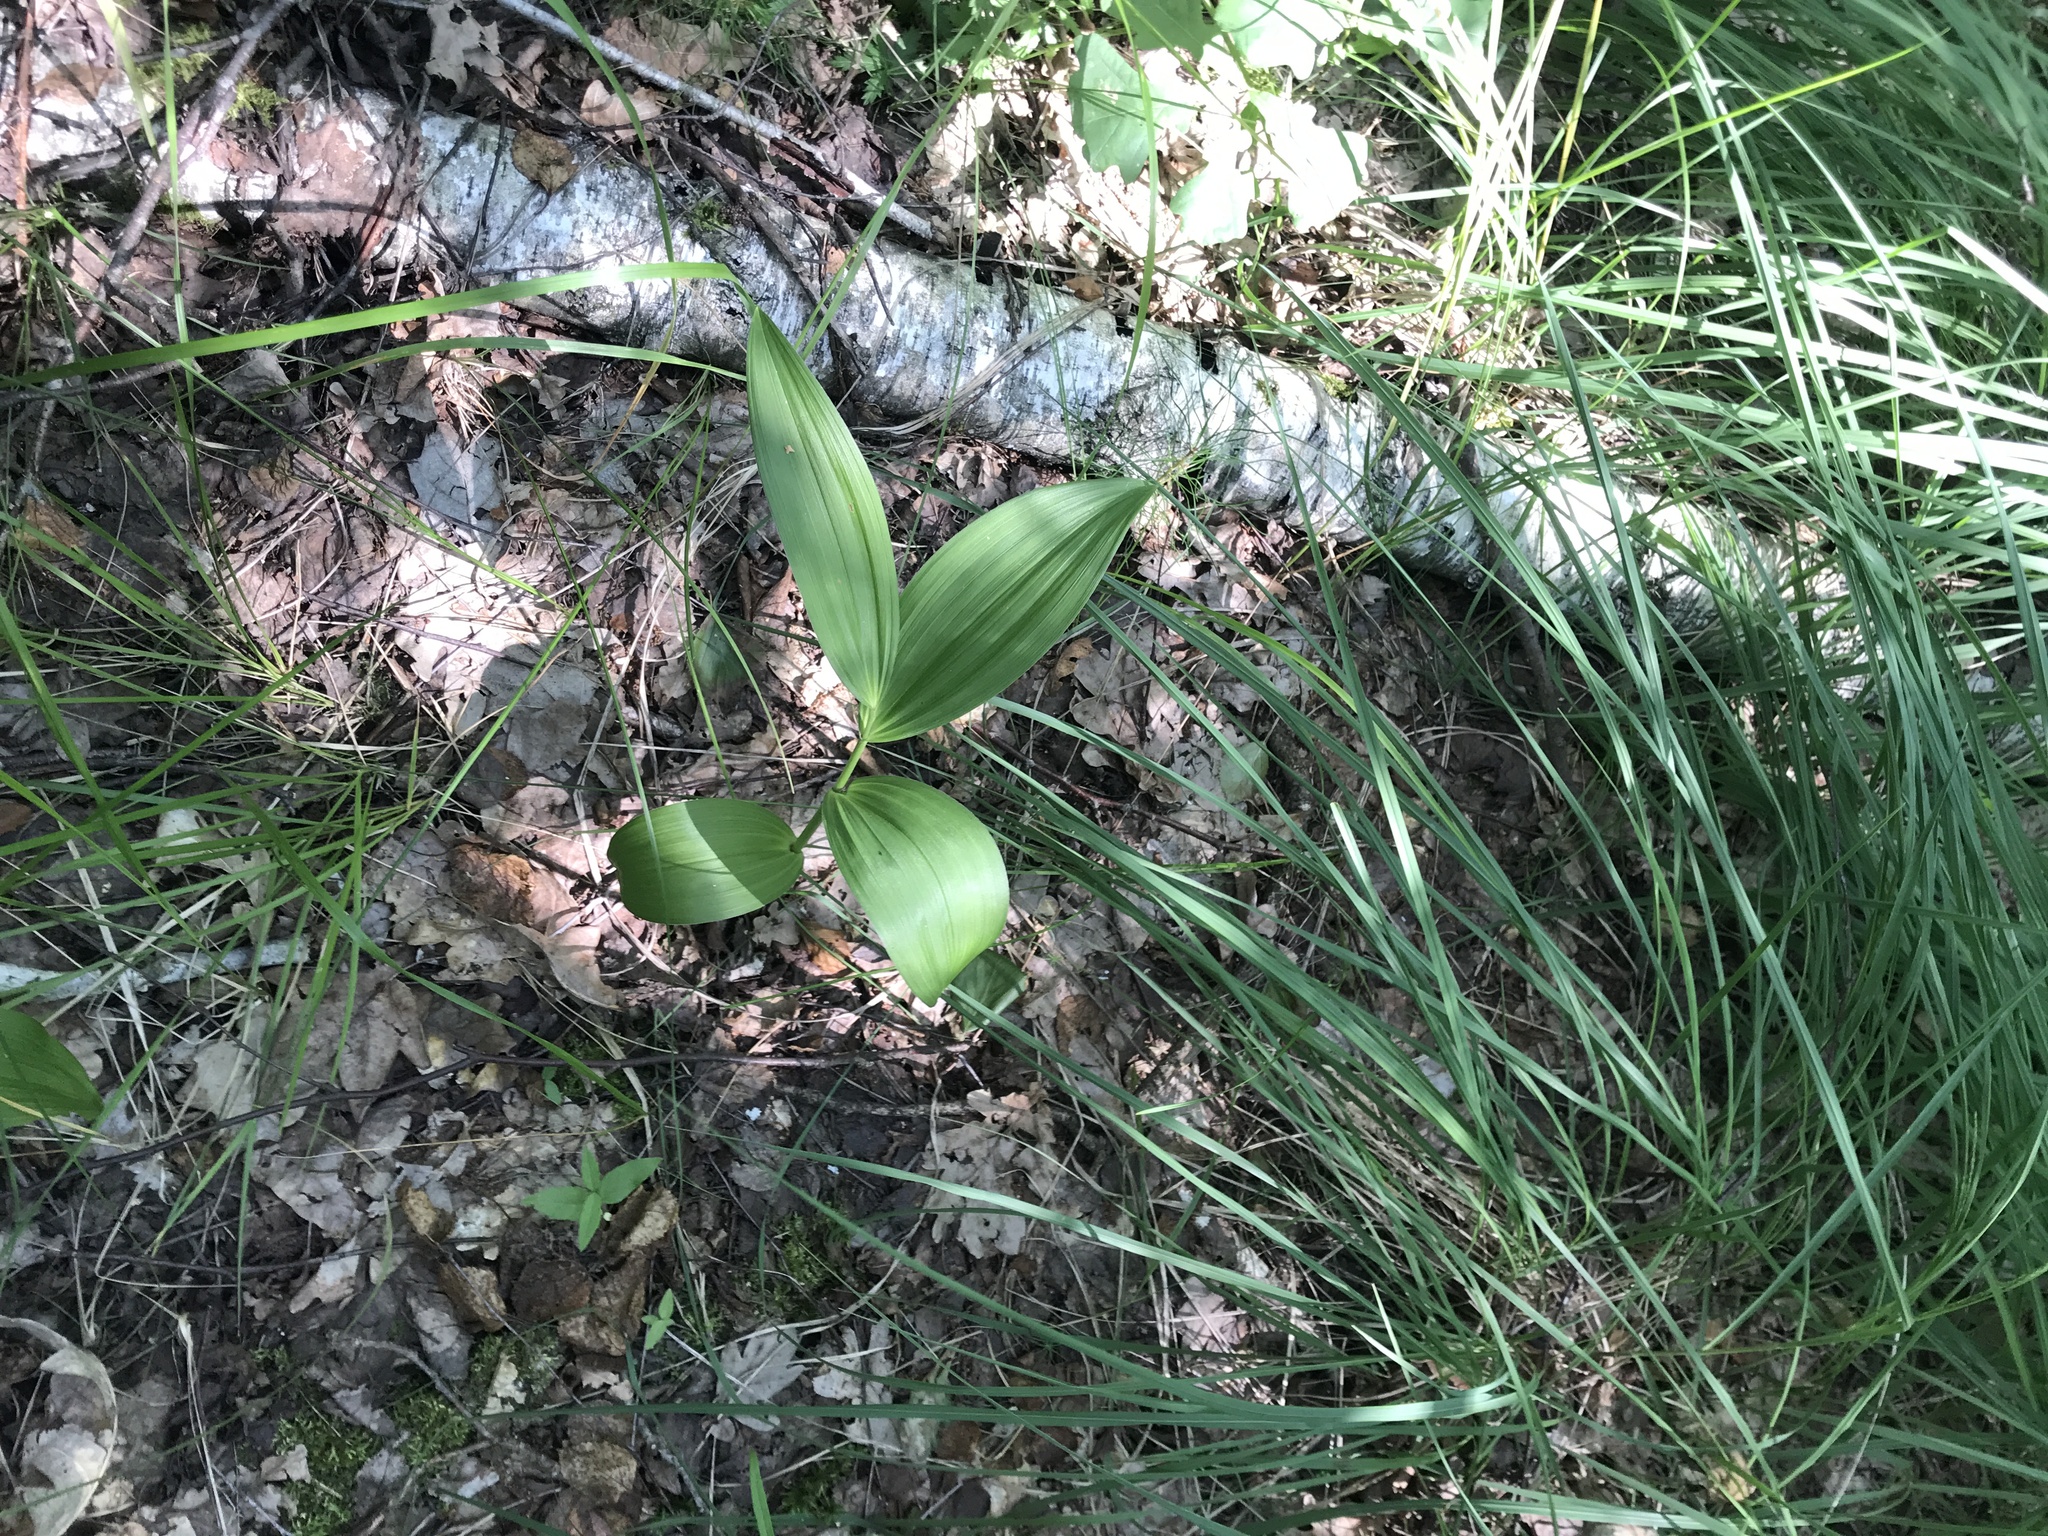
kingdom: Plantae
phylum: Tracheophyta
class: Liliopsida
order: Liliales
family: Melanthiaceae
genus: Veratrum
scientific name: Veratrum lobelianum
